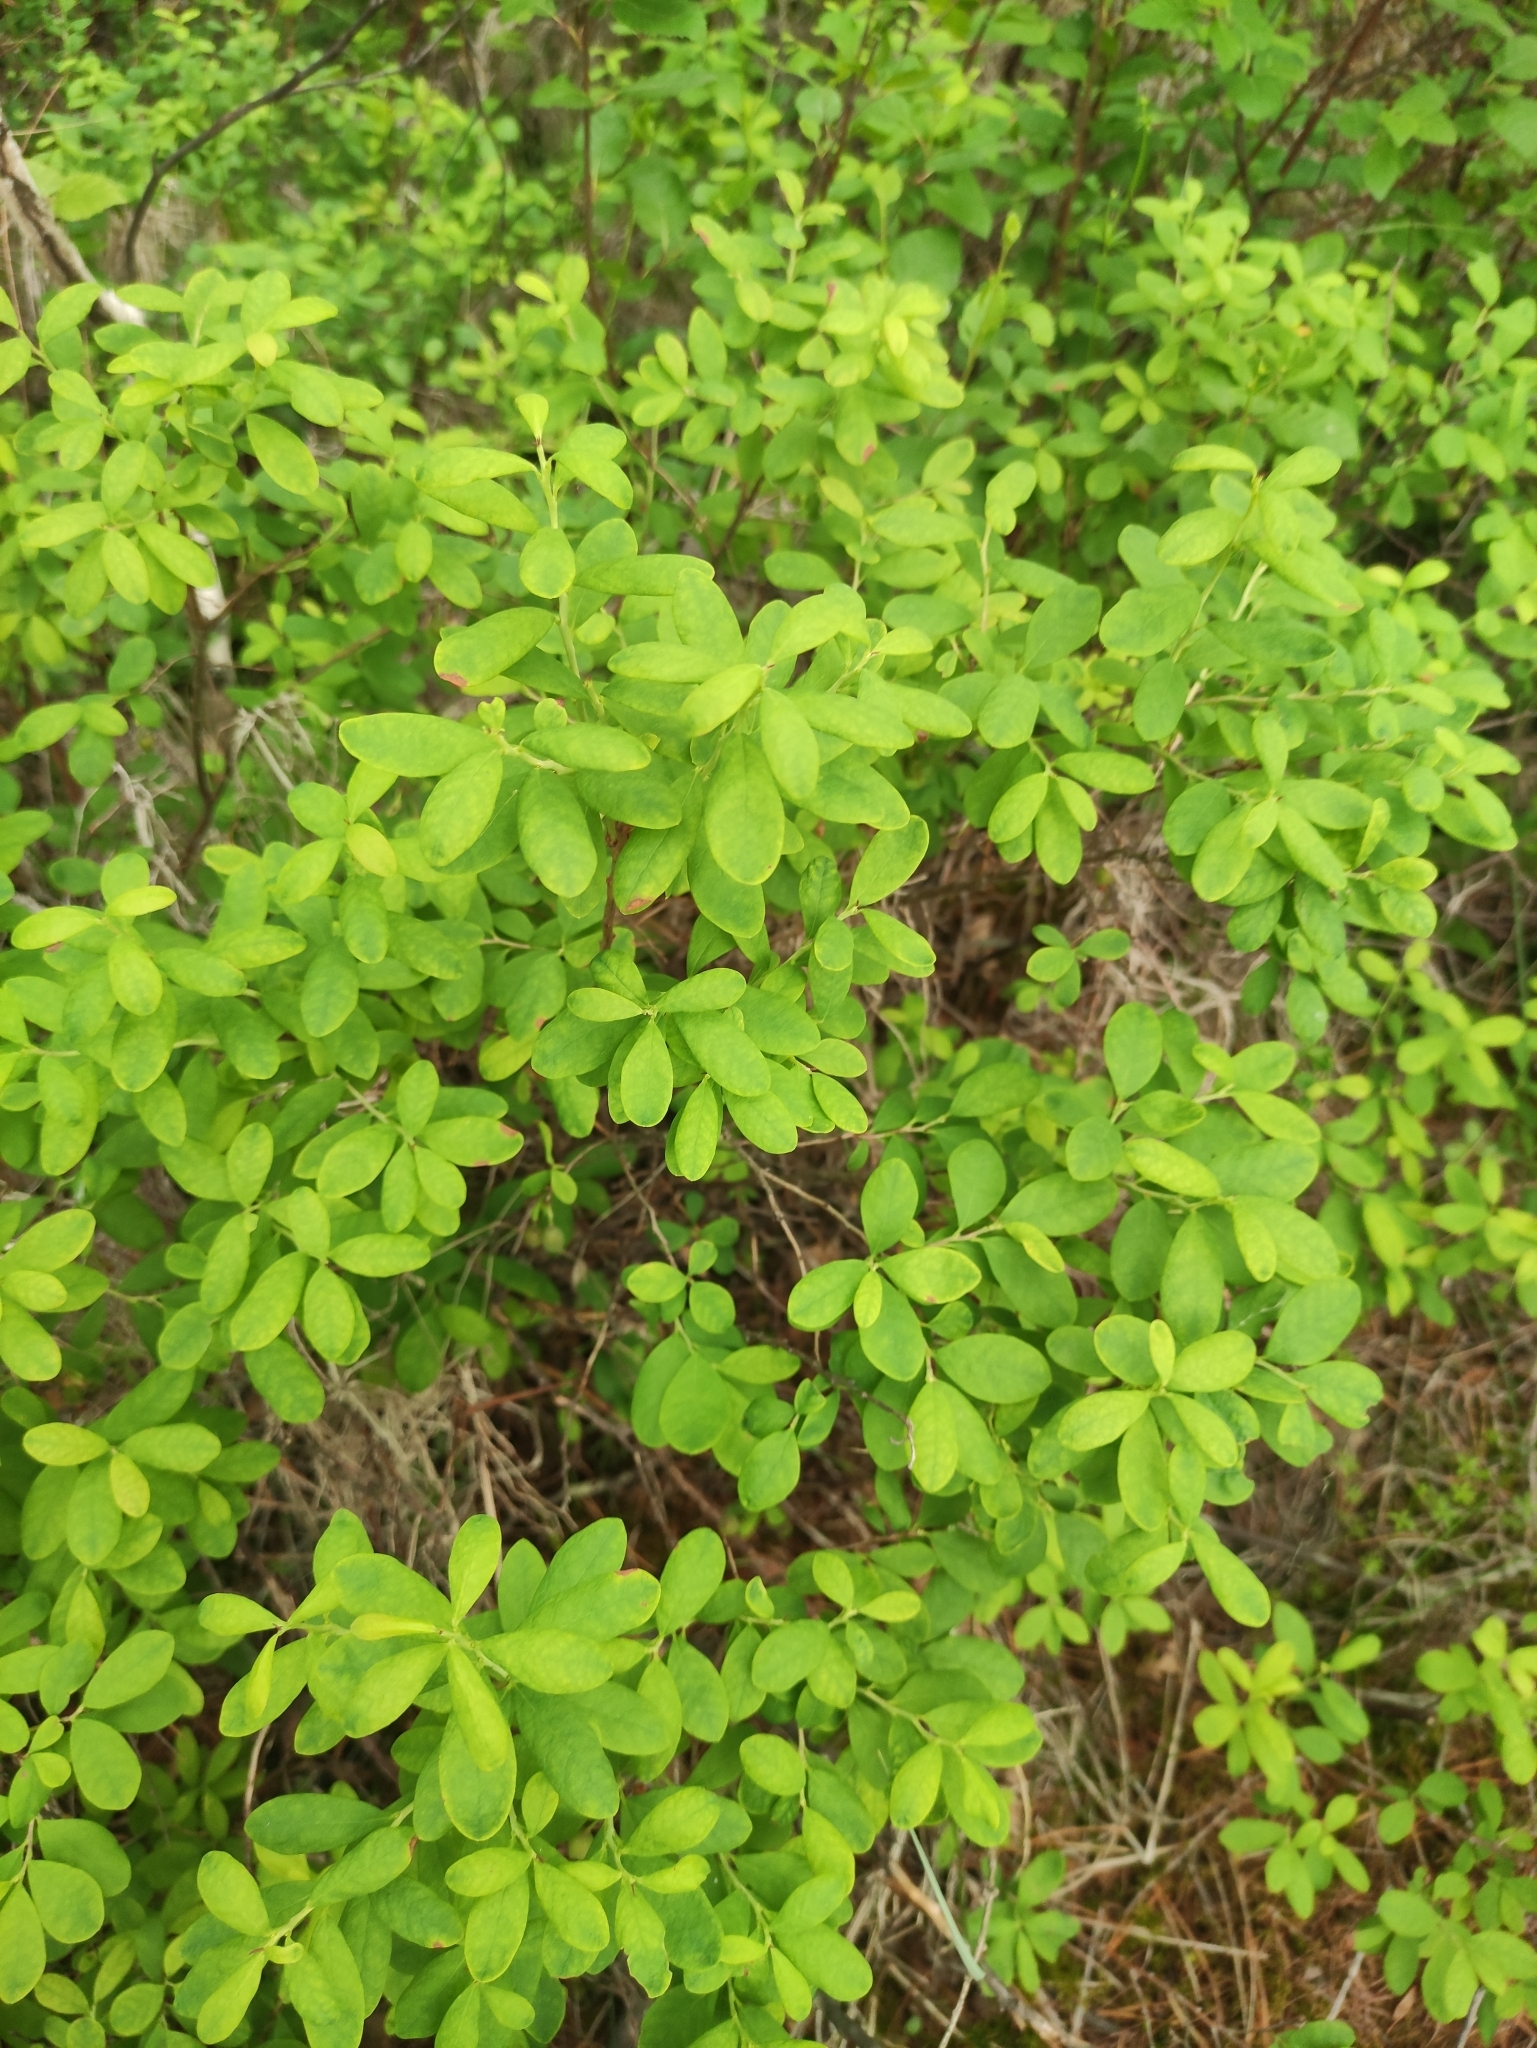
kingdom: Plantae
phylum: Tracheophyta
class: Magnoliopsida
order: Ericales
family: Ericaceae
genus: Vaccinium
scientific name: Vaccinium uliginosum
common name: Bog bilberry
